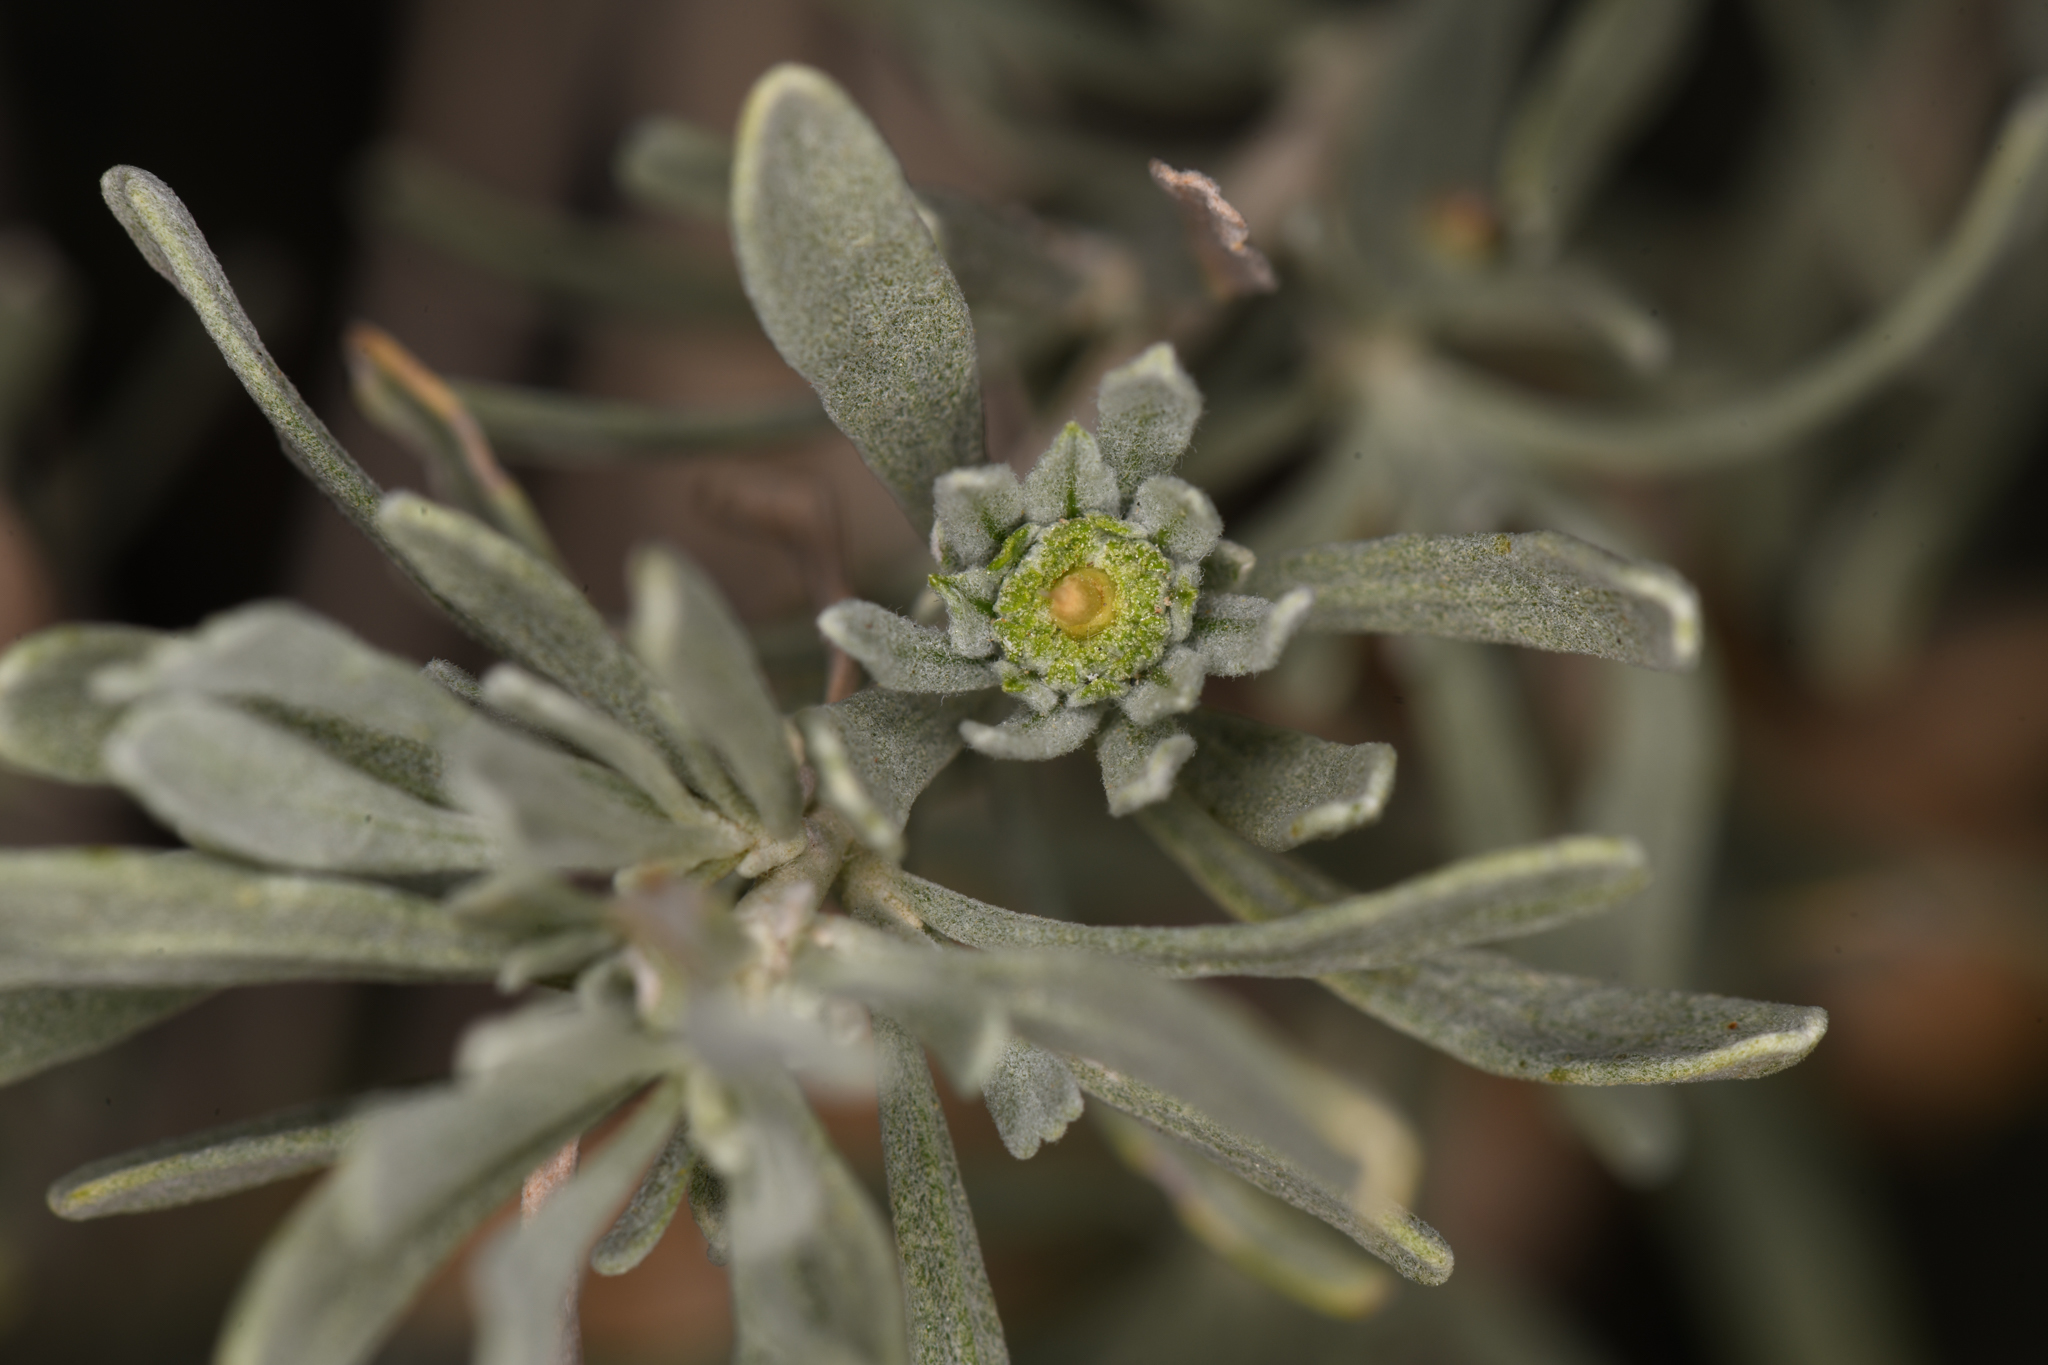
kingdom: Animalia
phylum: Arthropoda
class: Insecta
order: Diptera
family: Cecidomyiidae
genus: Rhopalomyia
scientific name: Rhopalomyia conica
